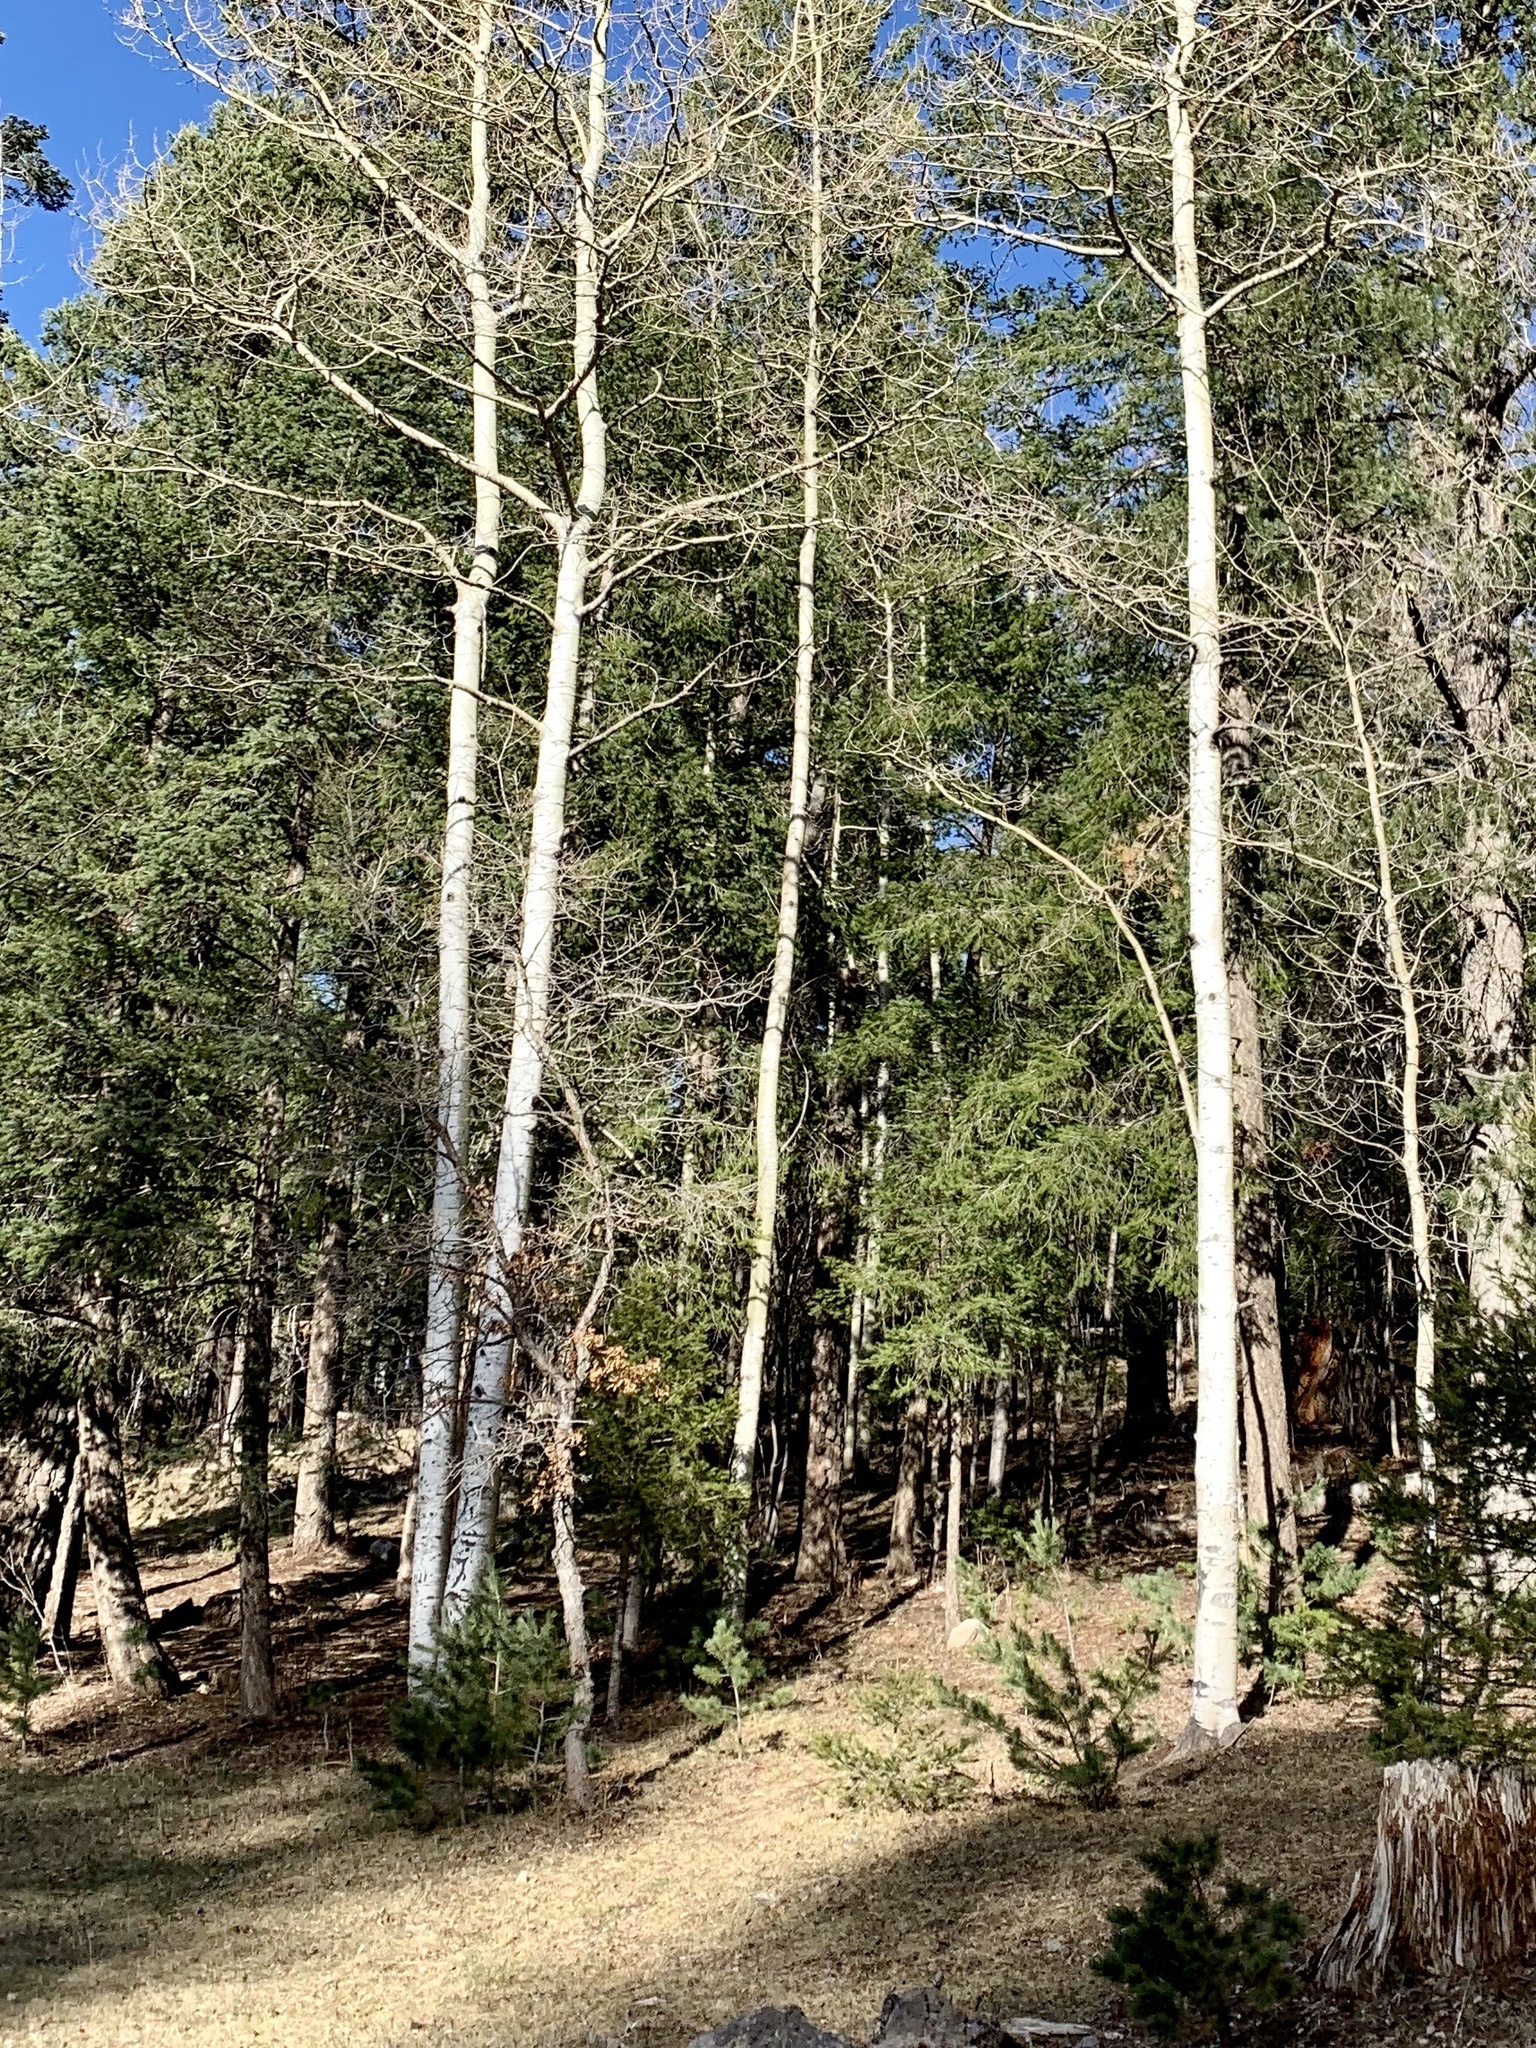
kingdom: Plantae
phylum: Tracheophyta
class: Magnoliopsida
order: Malpighiales
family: Salicaceae
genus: Populus
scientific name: Populus tremuloides
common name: Quaking aspen
